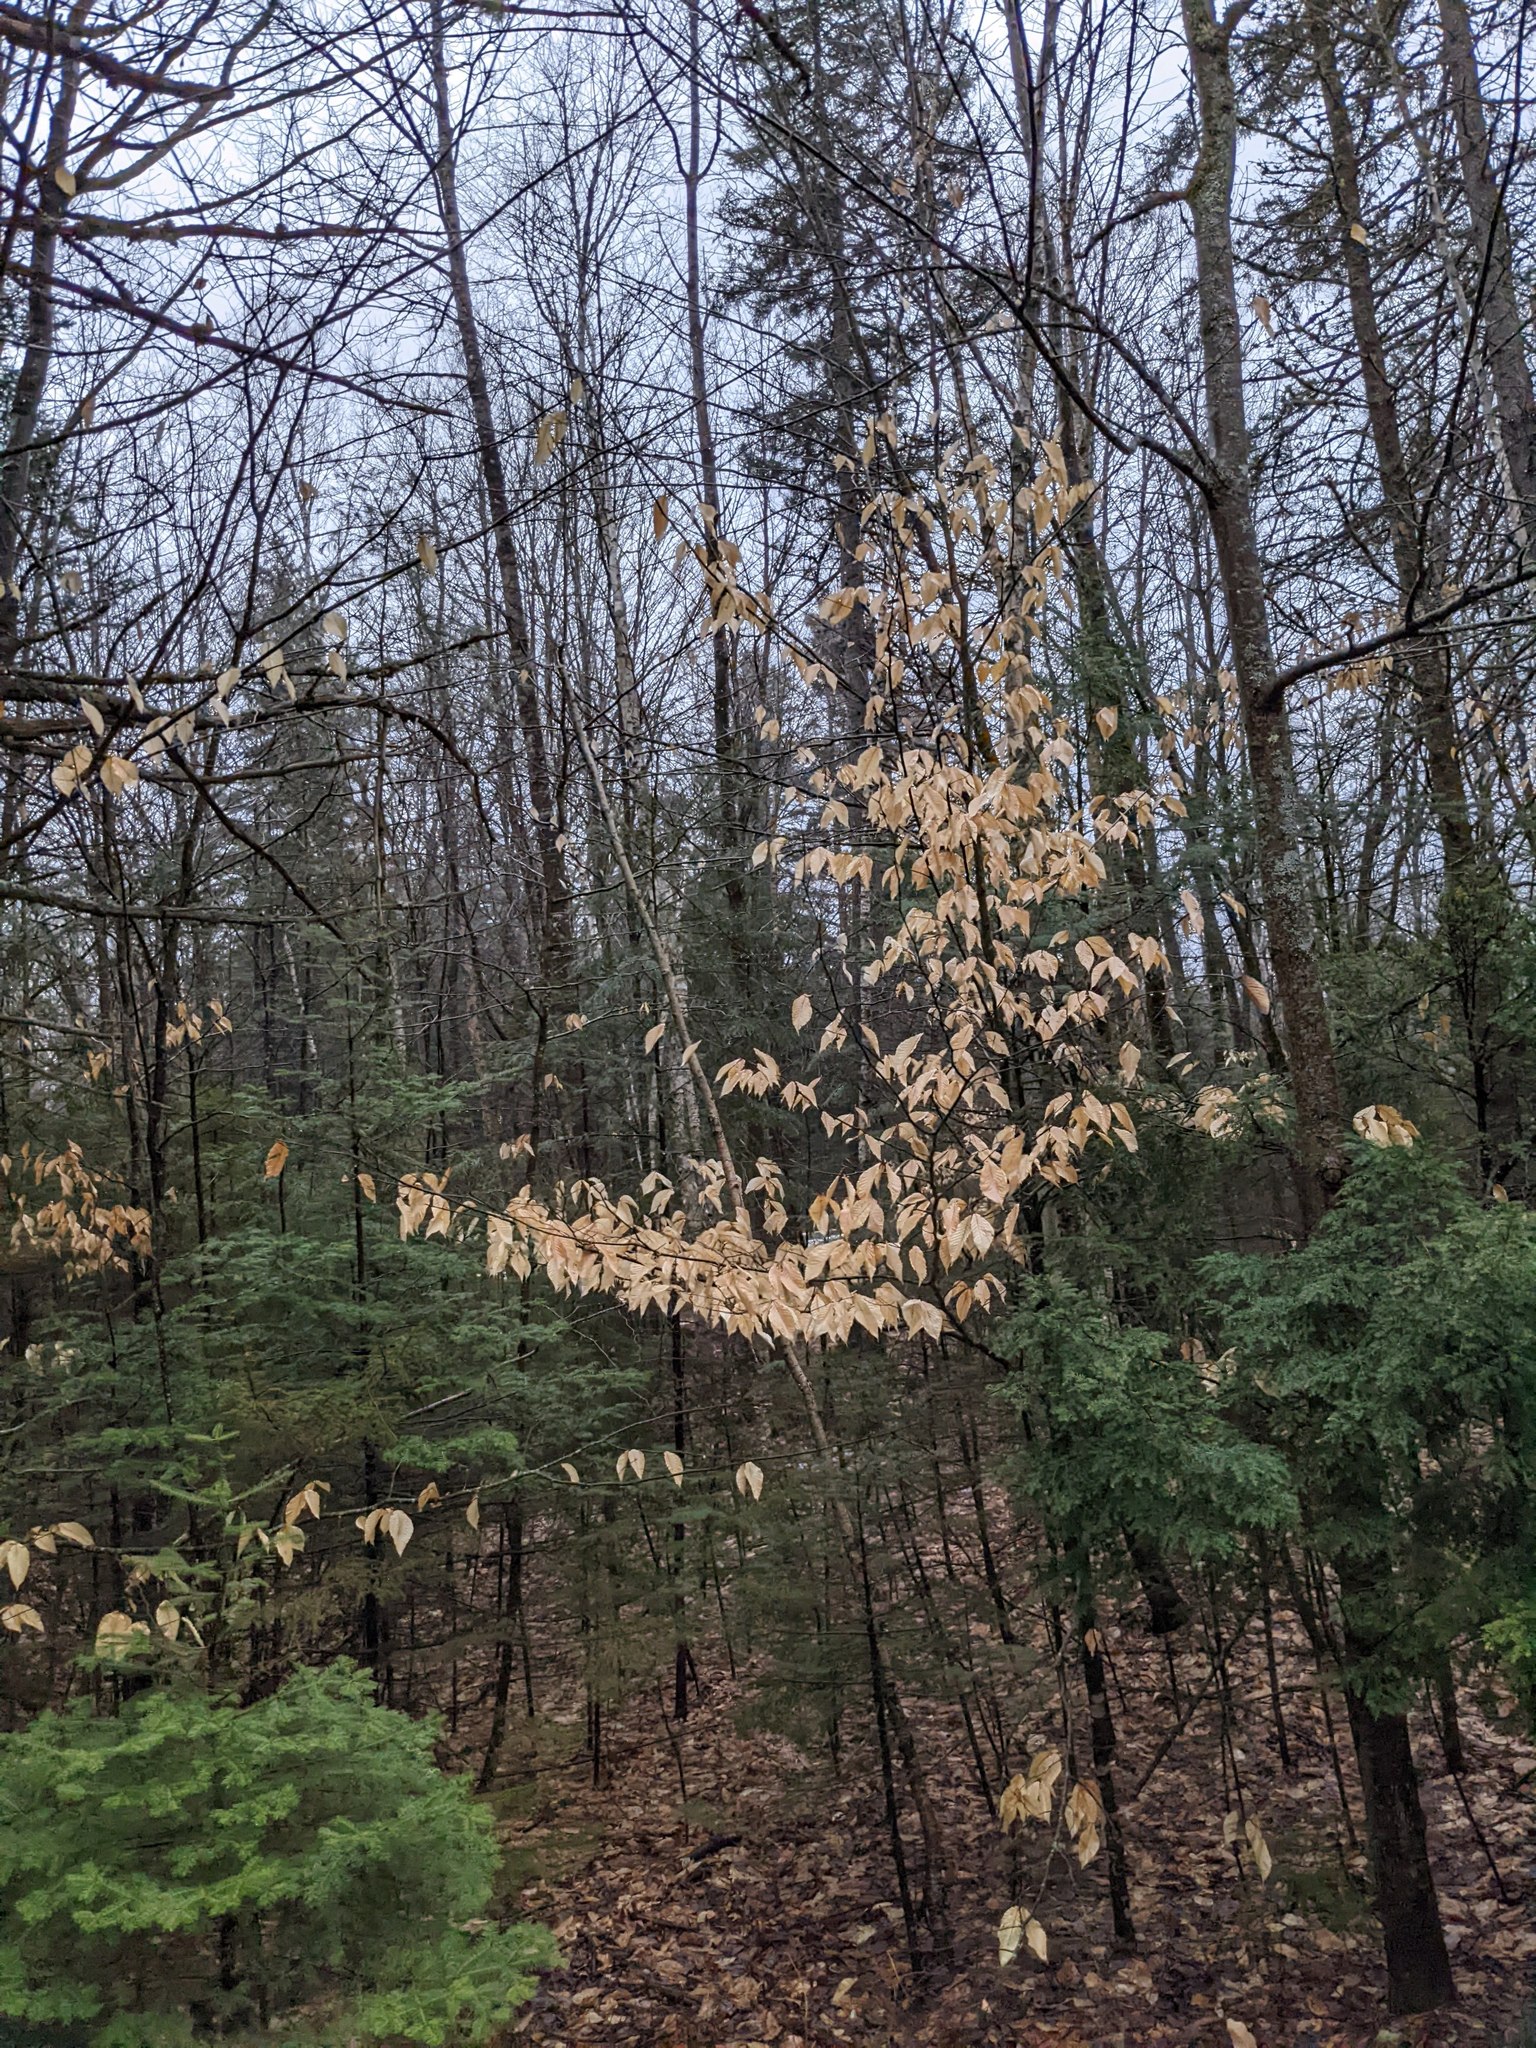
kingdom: Plantae
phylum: Tracheophyta
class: Magnoliopsida
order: Fagales
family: Fagaceae
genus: Fagus
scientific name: Fagus grandifolia
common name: American beech
